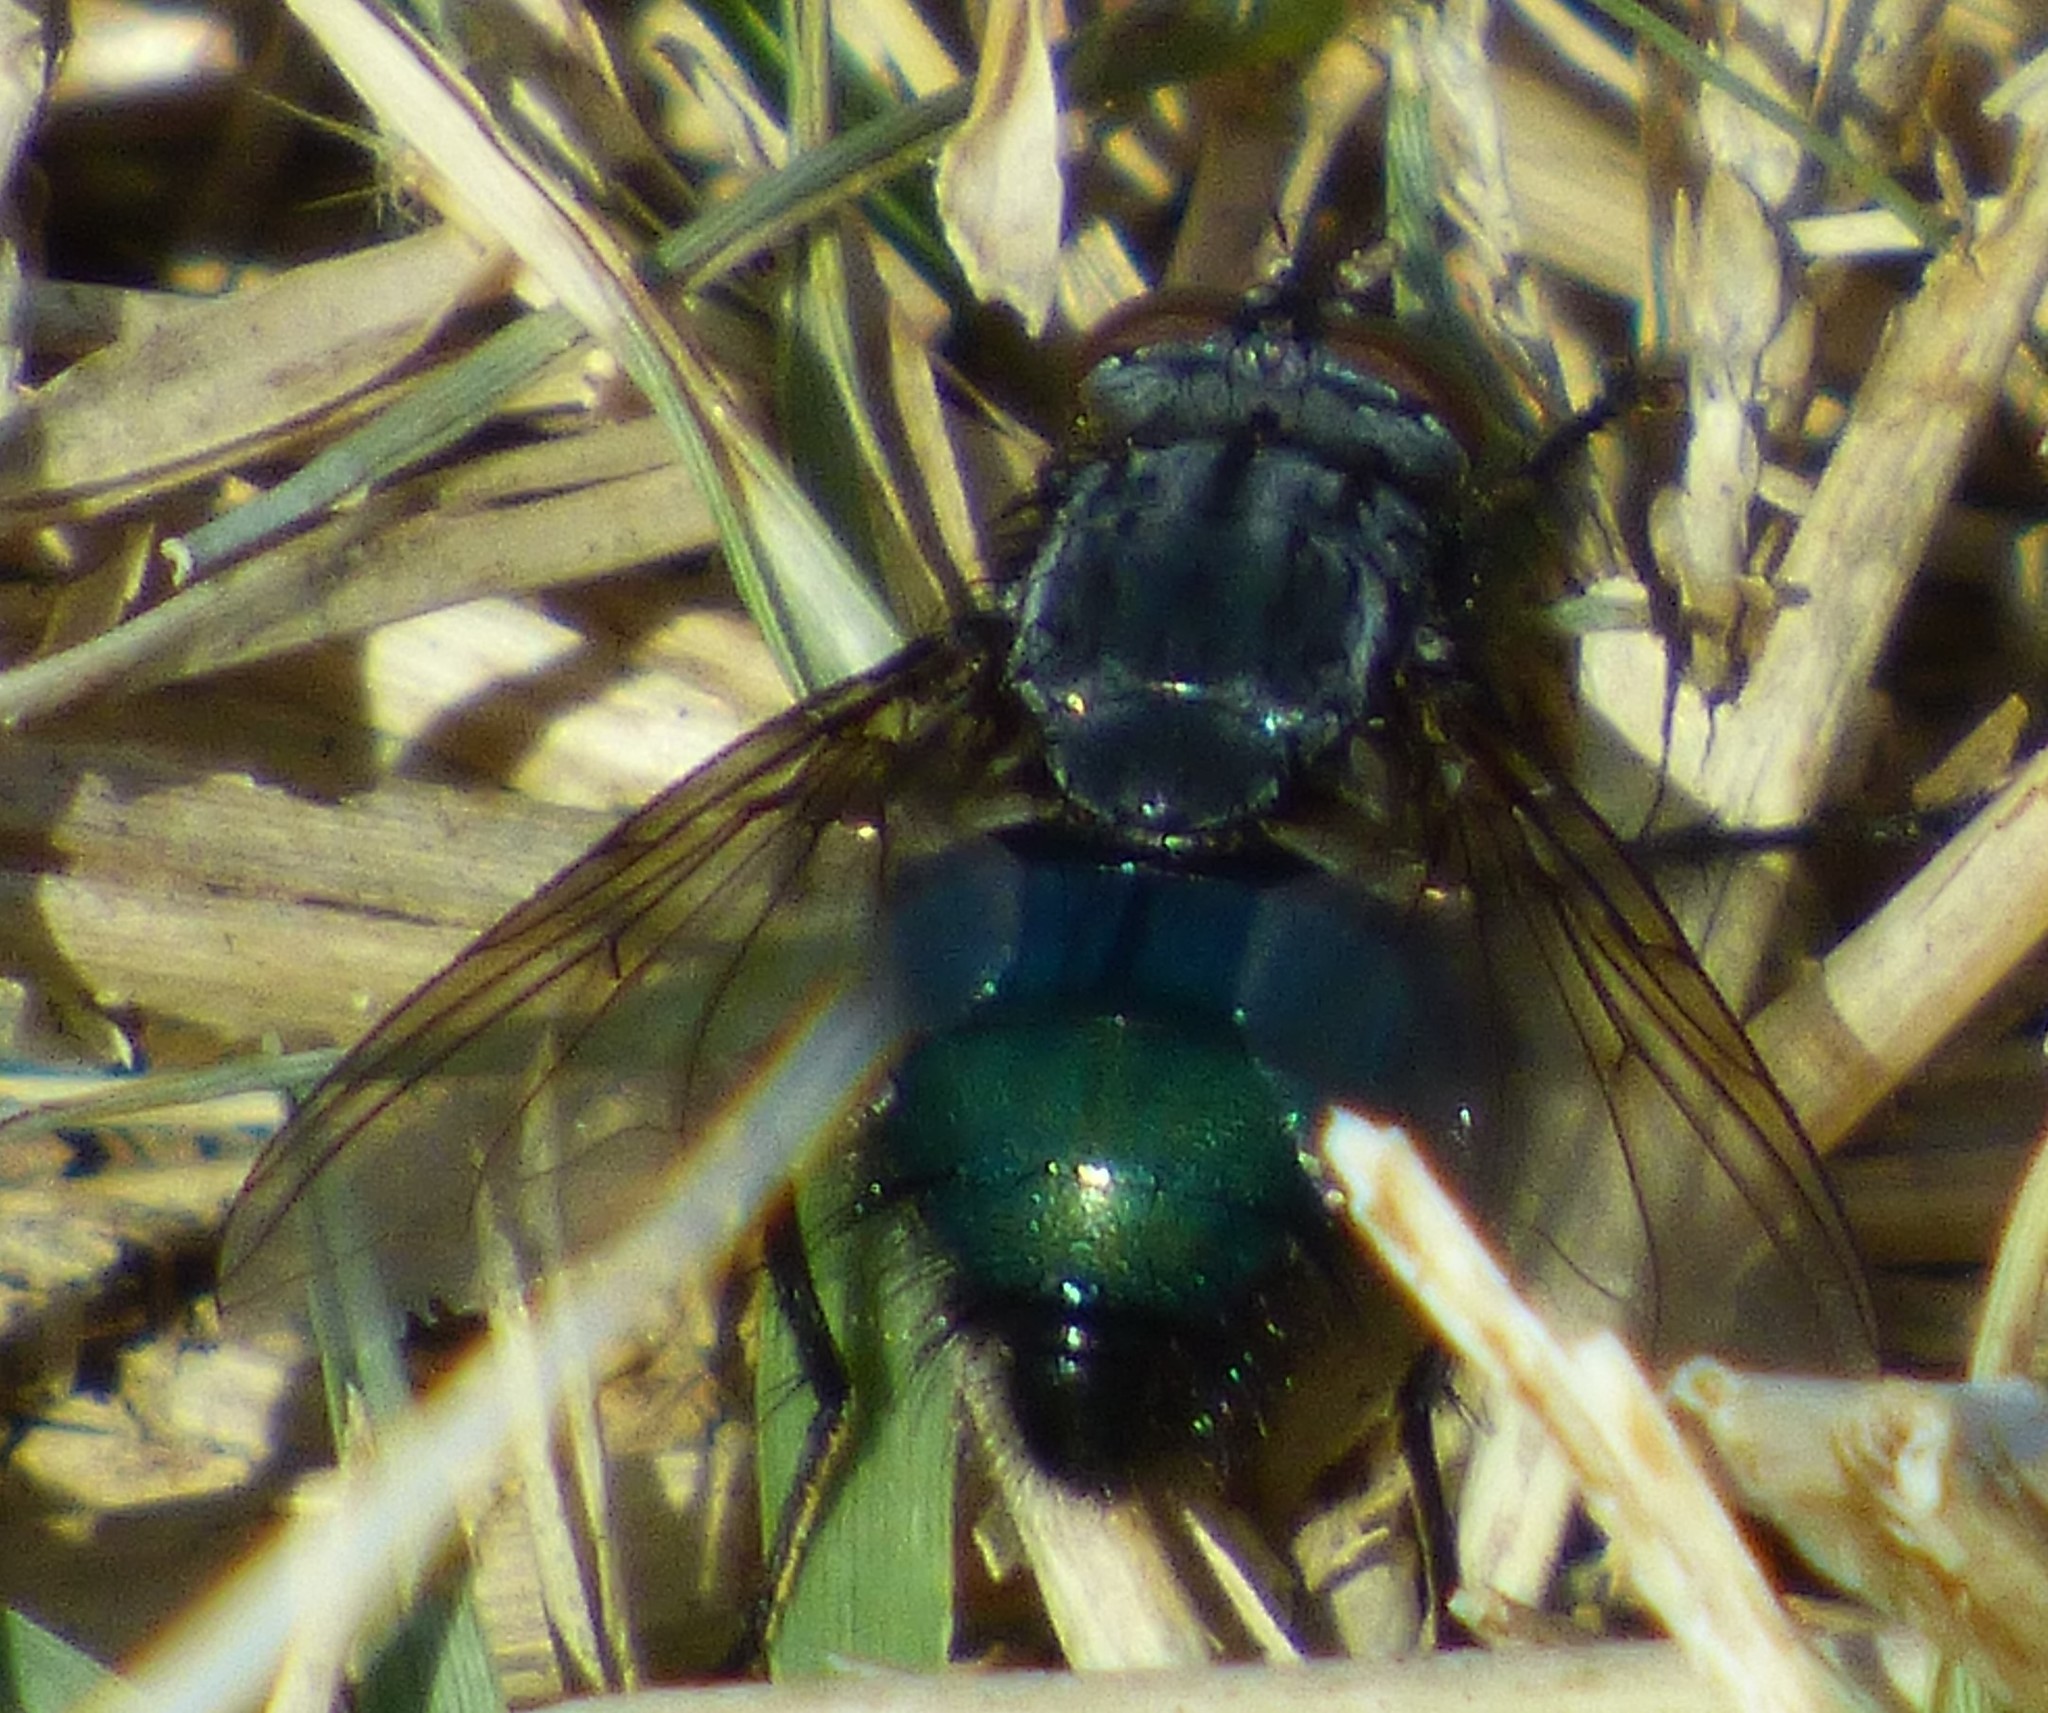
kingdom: Animalia
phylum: Arthropoda
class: Insecta
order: Diptera
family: Calliphoridae
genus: Cynomya
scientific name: Cynomya cadaverina
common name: Shiny blue bottle fly
